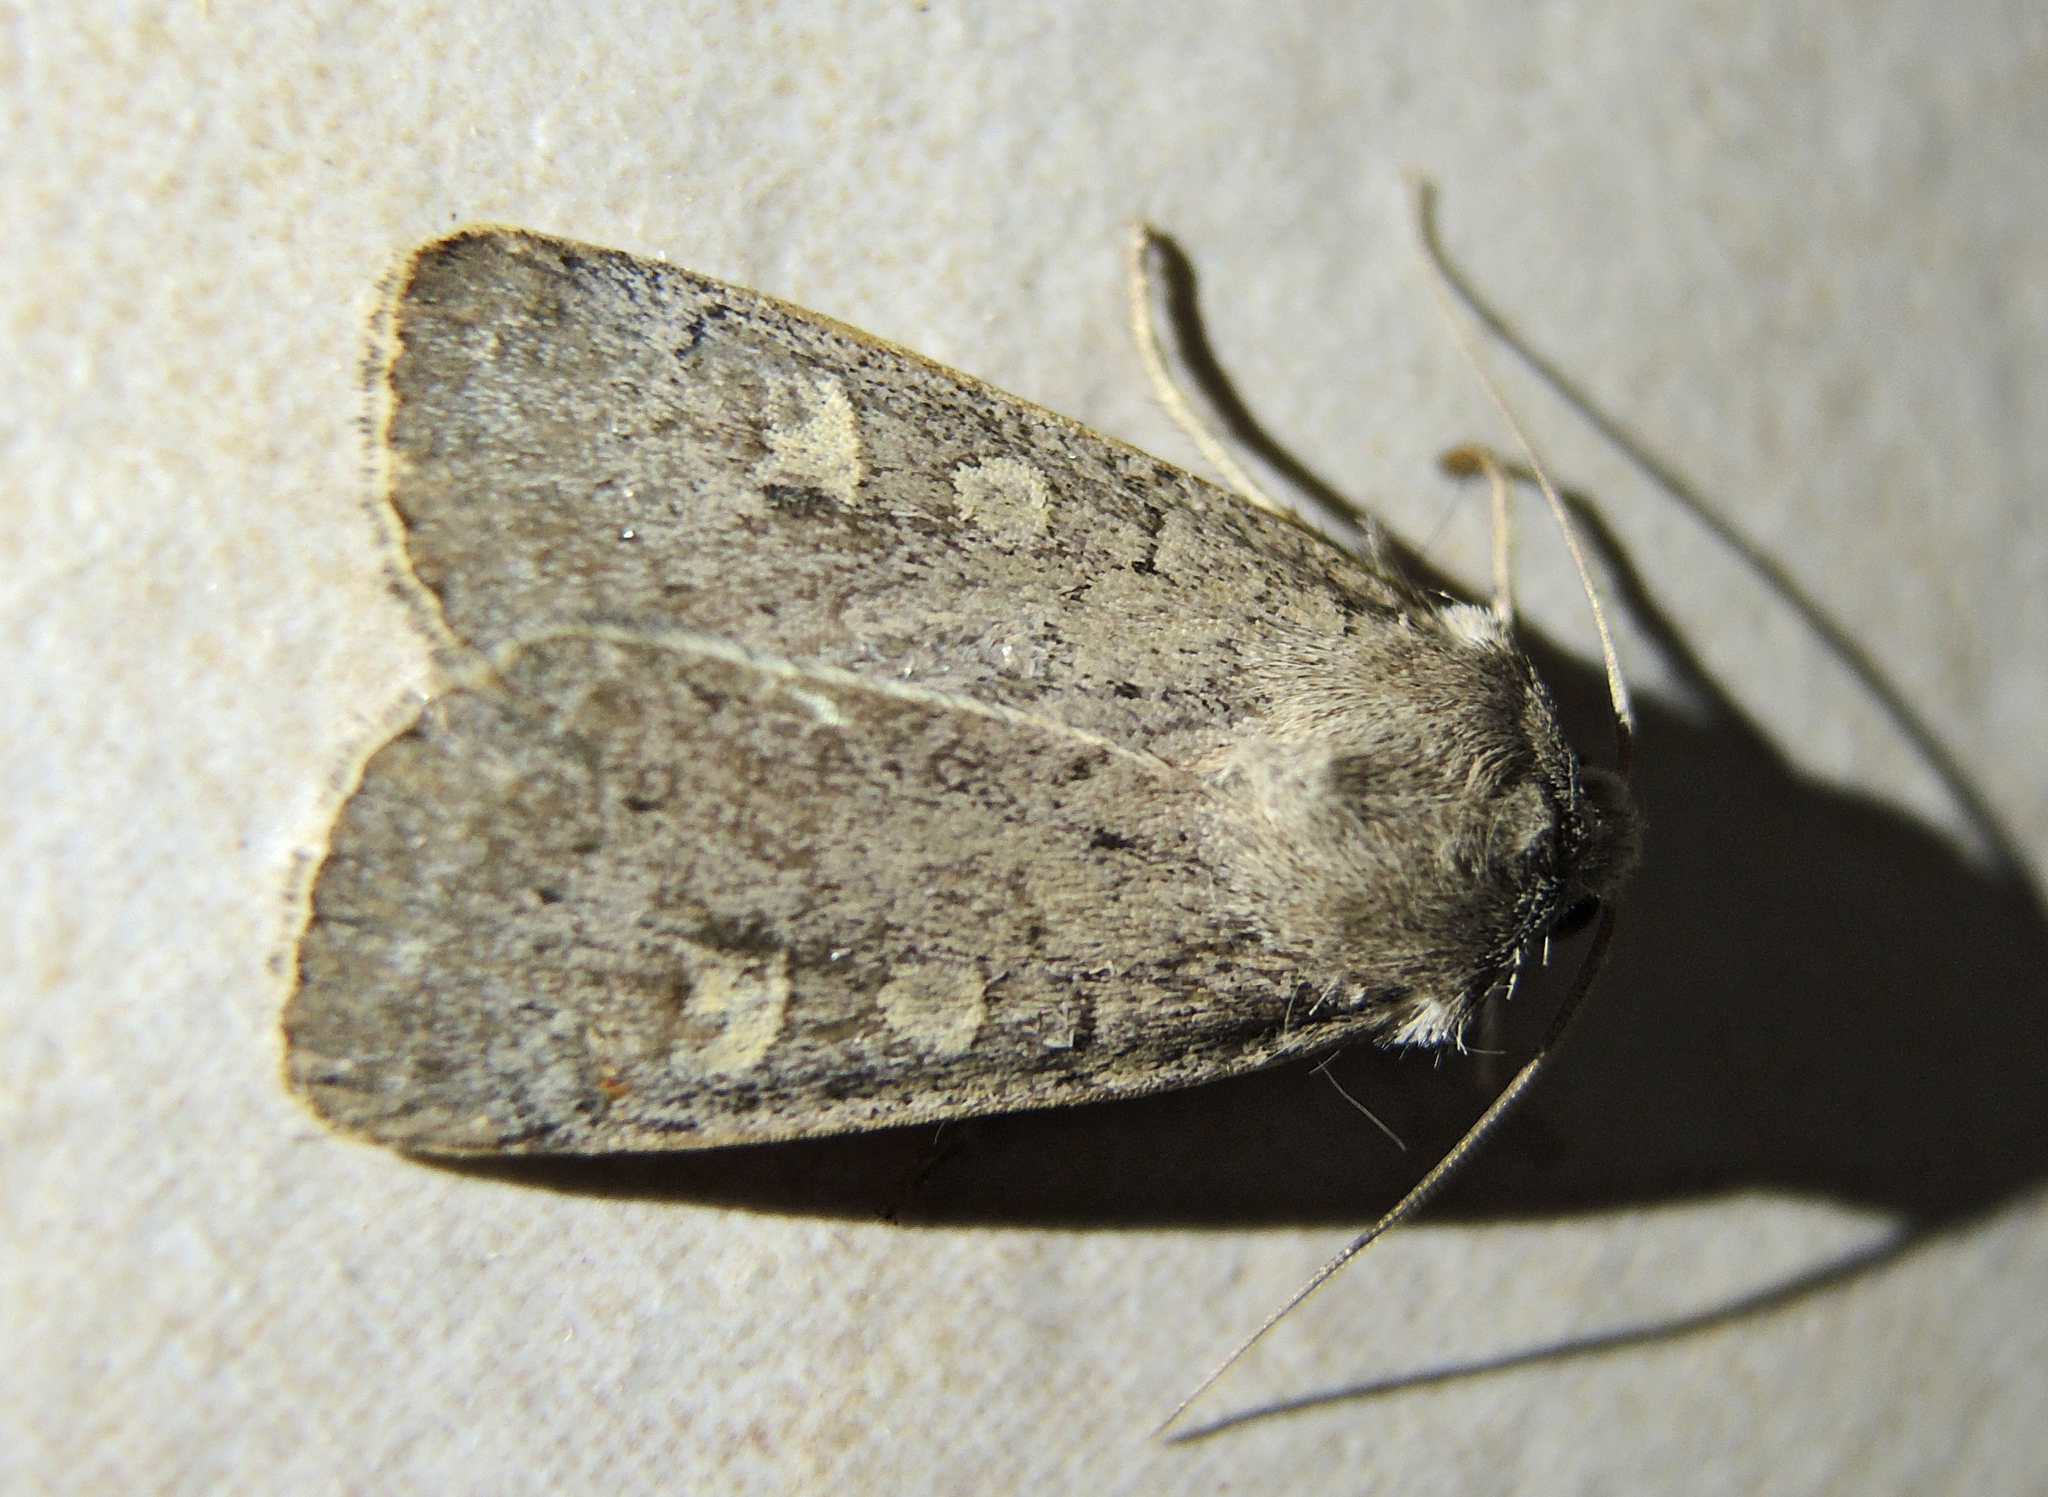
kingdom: Animalia
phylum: Arthropoda
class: Insecta
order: Lepidoptera
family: Noctuidae
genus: Xestia
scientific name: Xestia xanthographa
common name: Square-spot rustic
